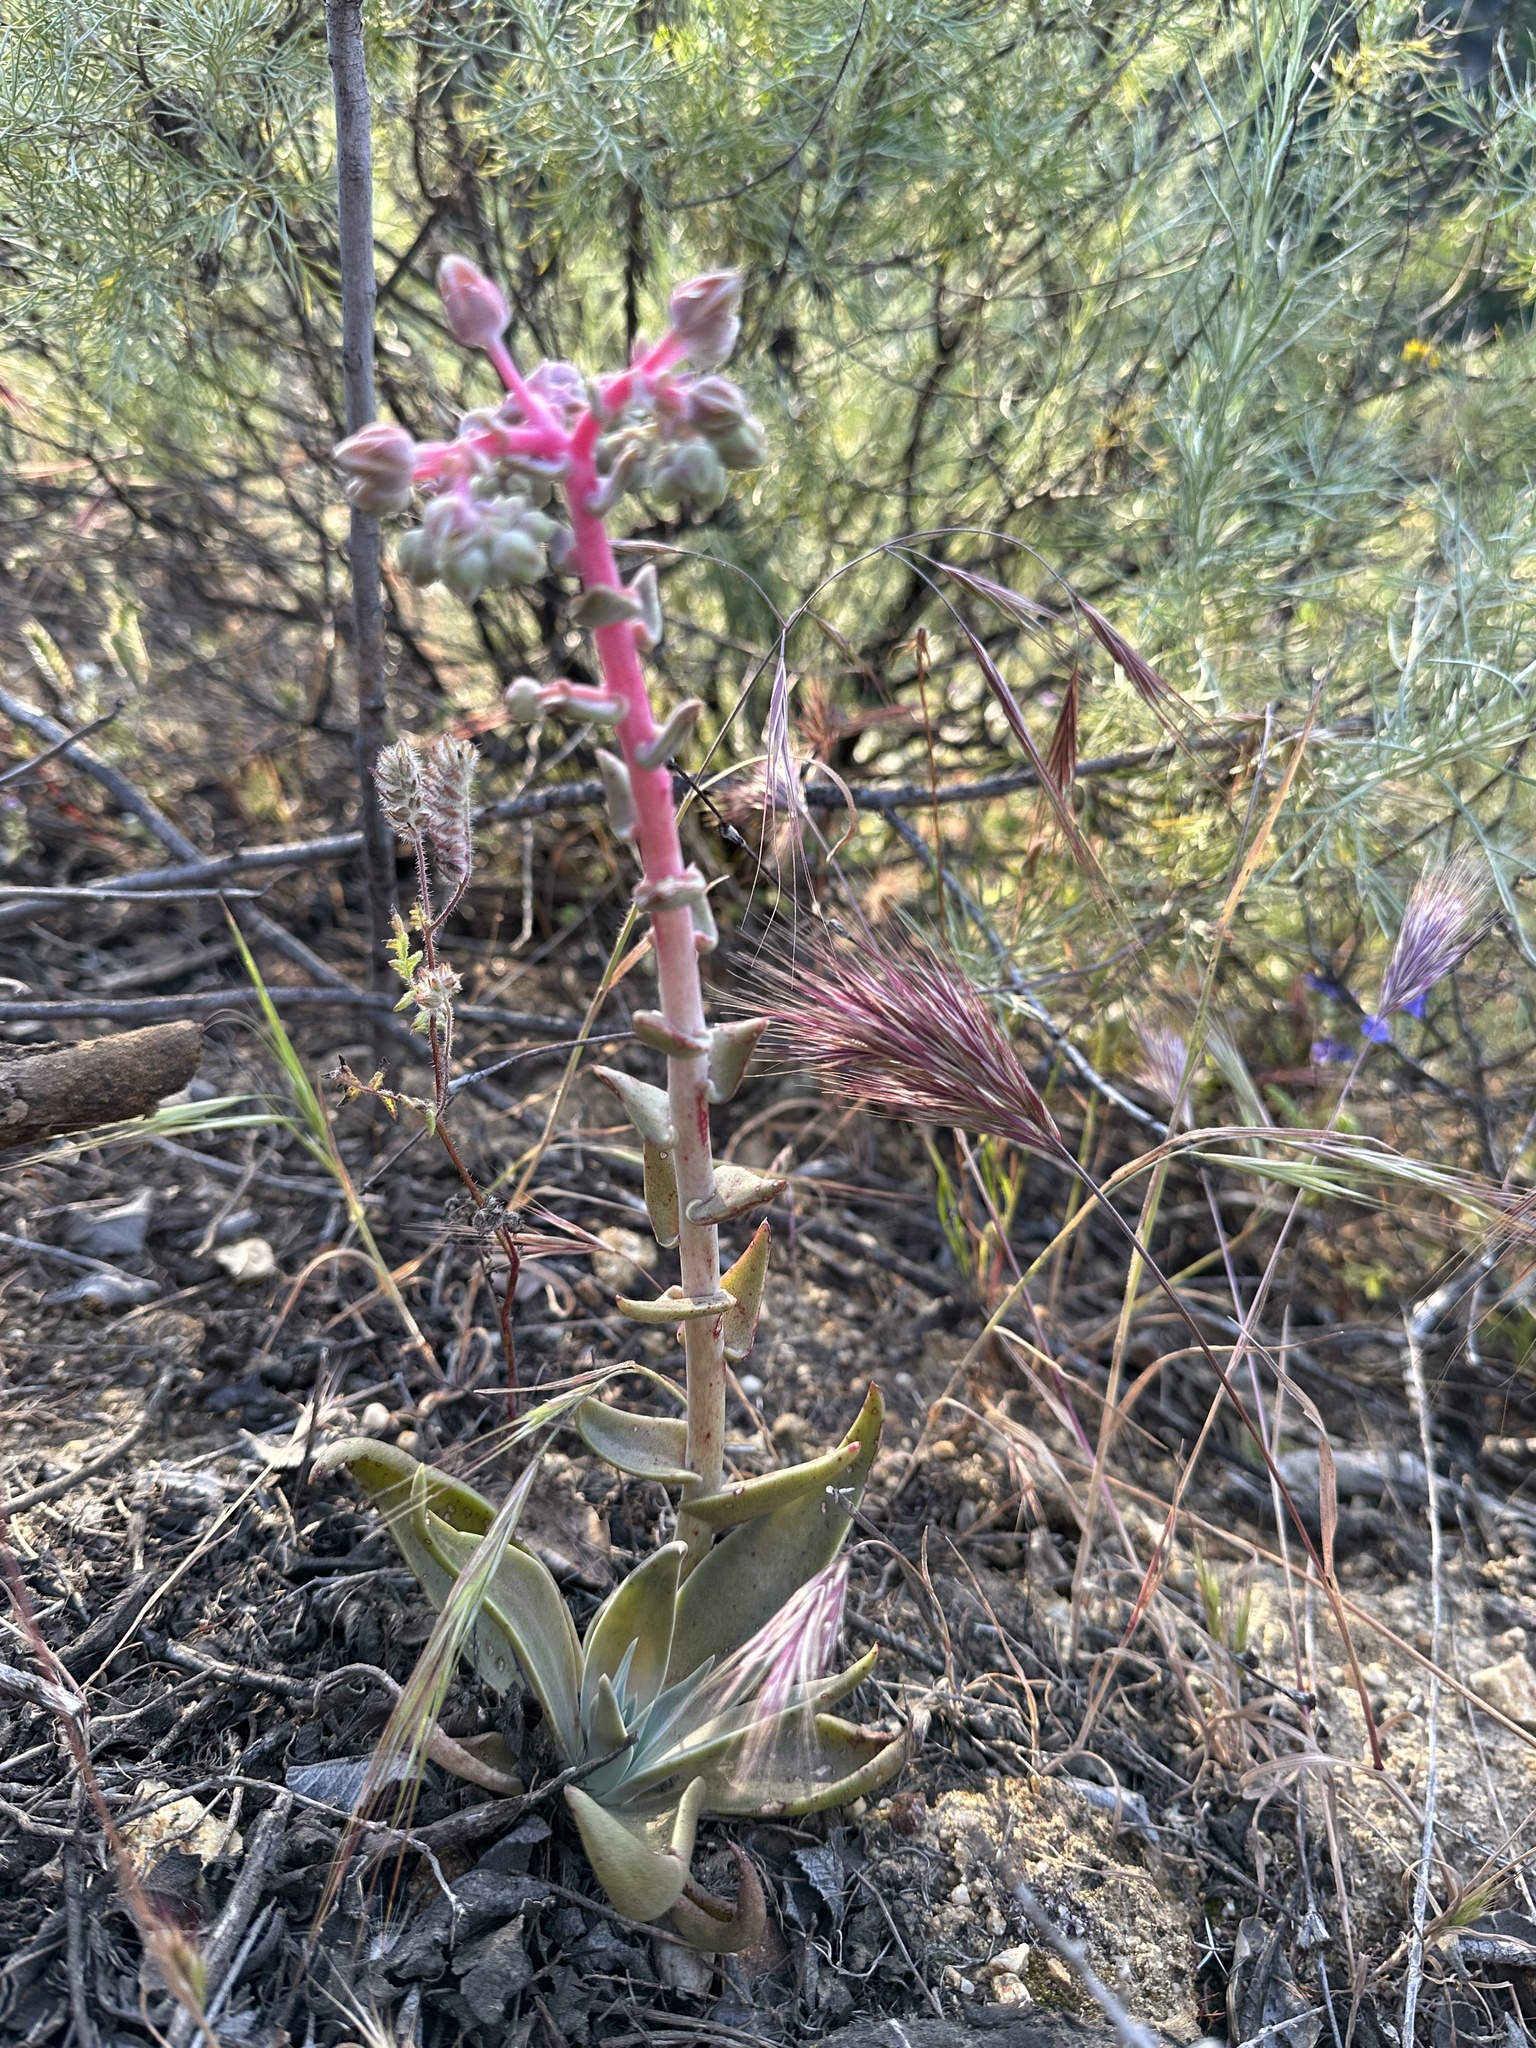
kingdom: Plantae
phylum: Tracheophyta
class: Magnoliopsida
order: Saxifragales
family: Crassulaceae
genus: Dudleya
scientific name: Dudleya lanceolata
